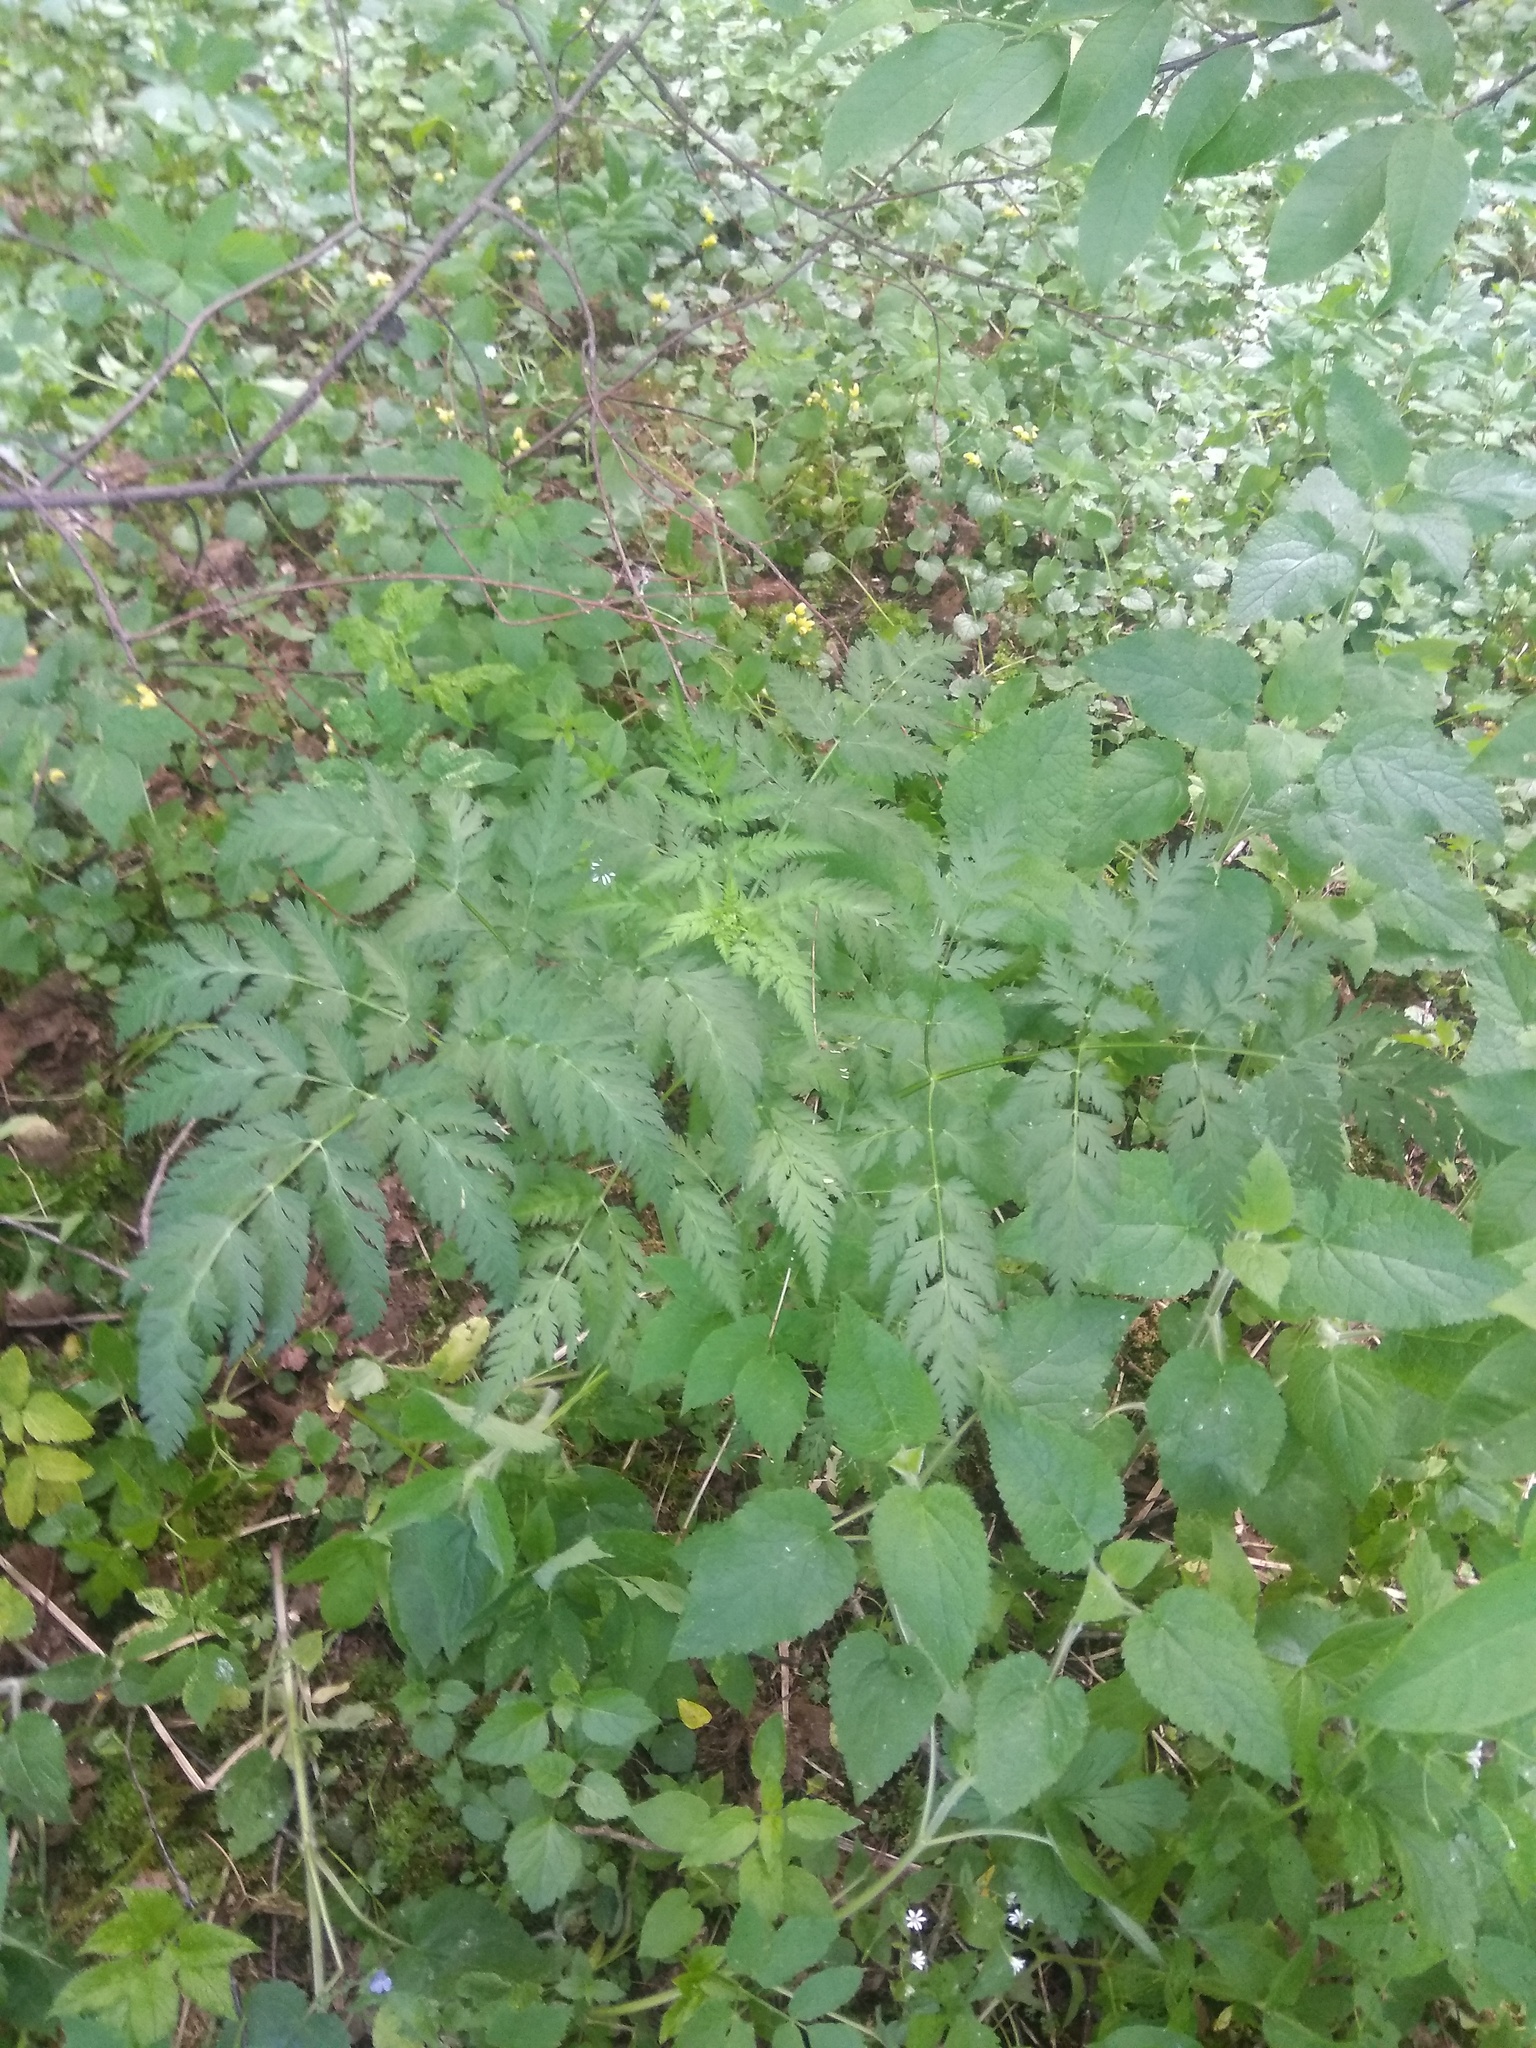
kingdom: Plantae
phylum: Tracheophyta
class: Magnoliopsida
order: Apiales
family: Apiaceae
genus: Anthriscus
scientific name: Anthriscus sylvestris
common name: Cow parsley
